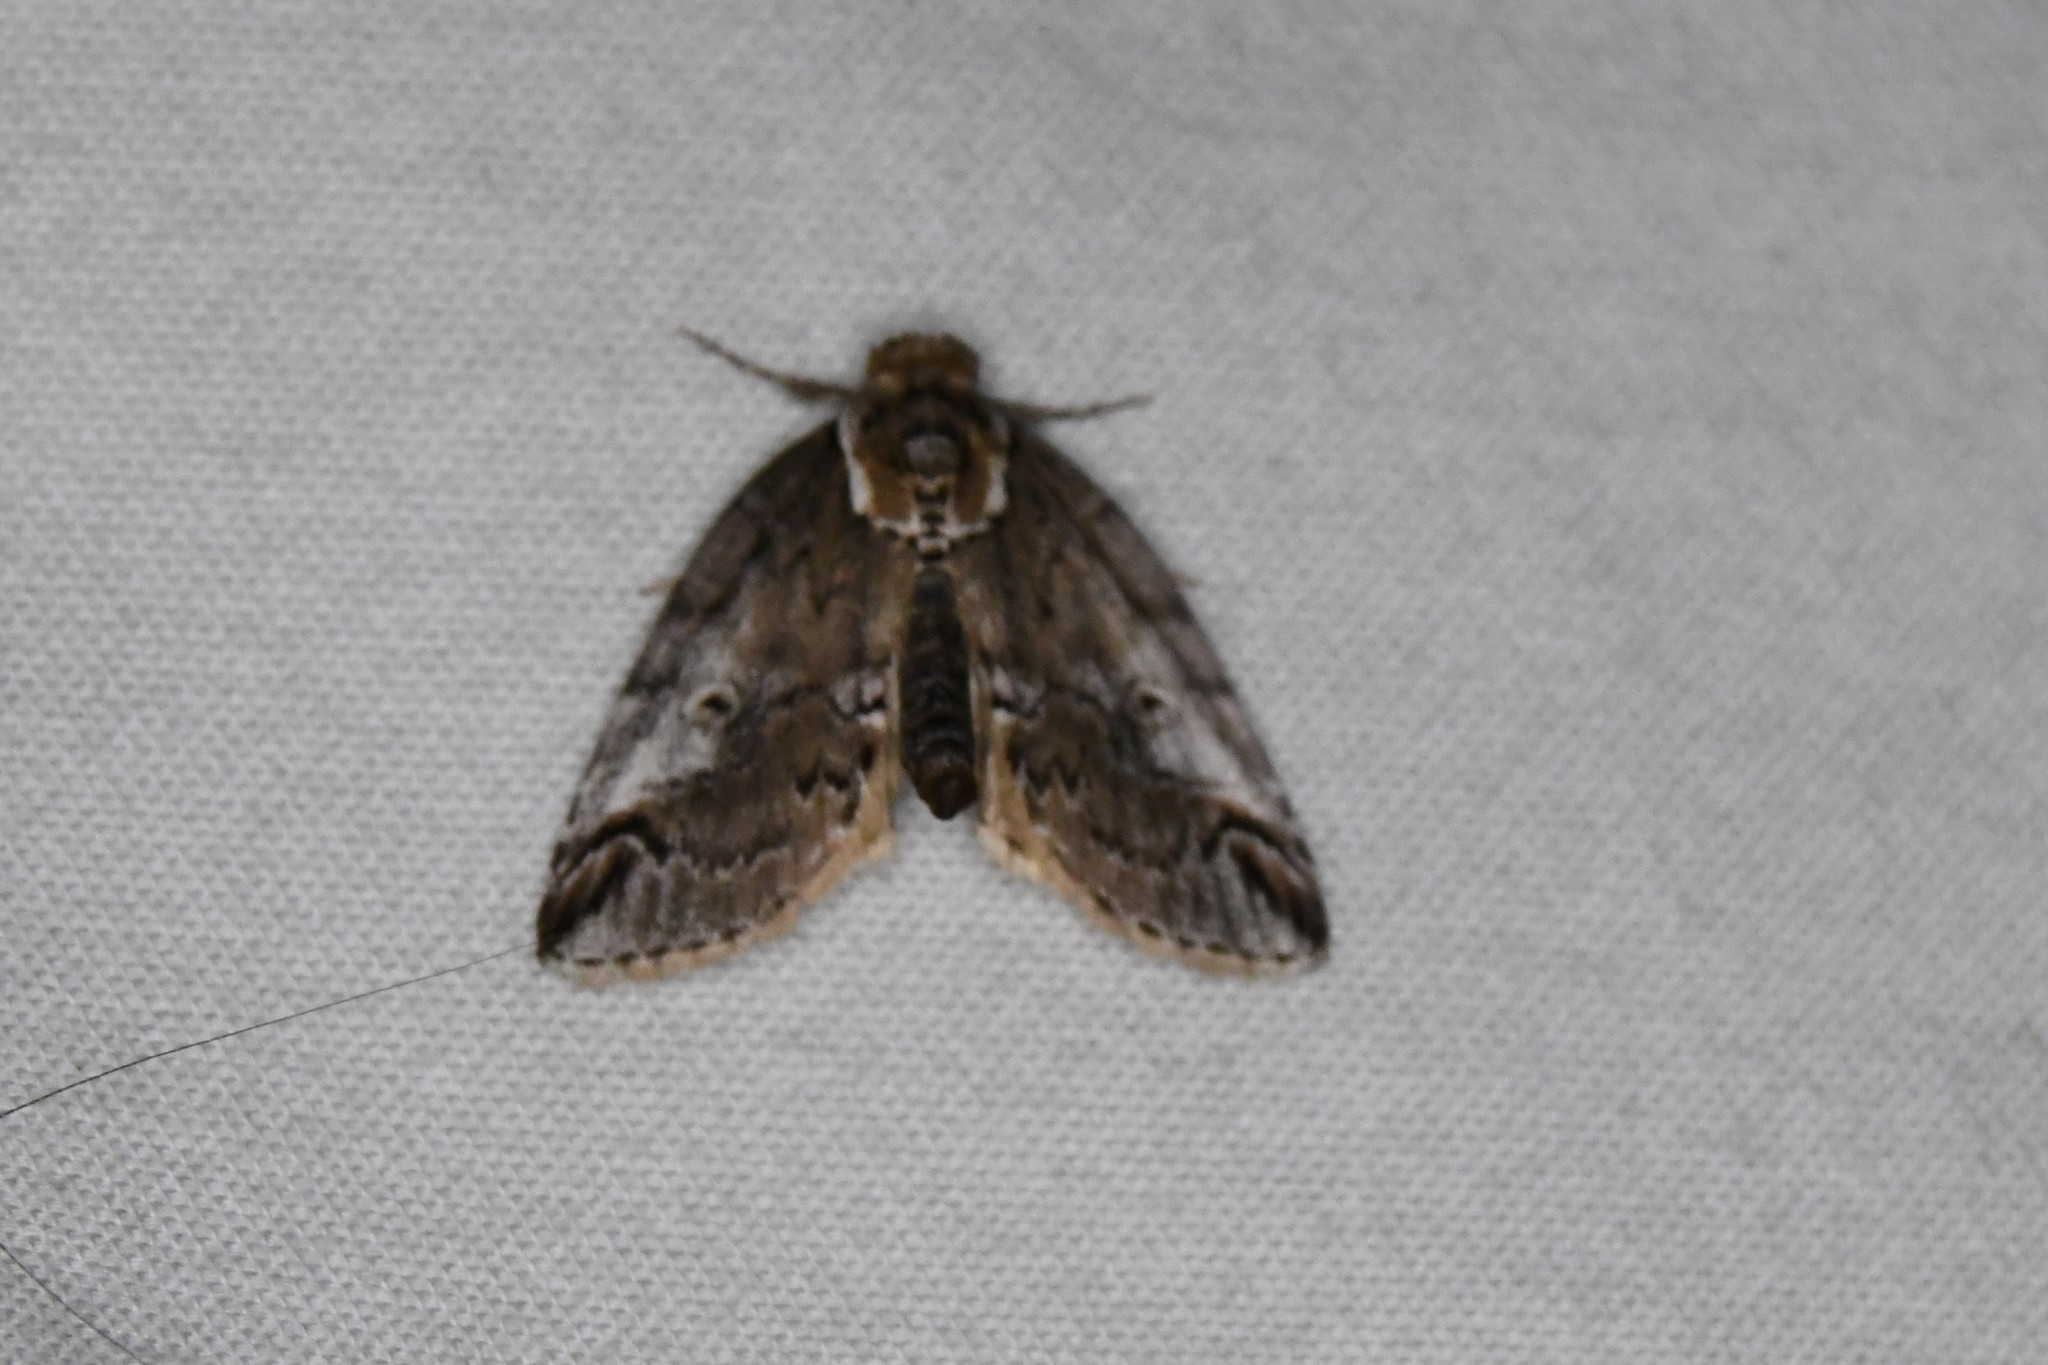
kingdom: Animalia
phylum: Arthropoda
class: Insecta
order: Lepidoptera
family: Nolidae
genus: Baileya
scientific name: Baileya ophthalmica
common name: Eyed baileya moth
